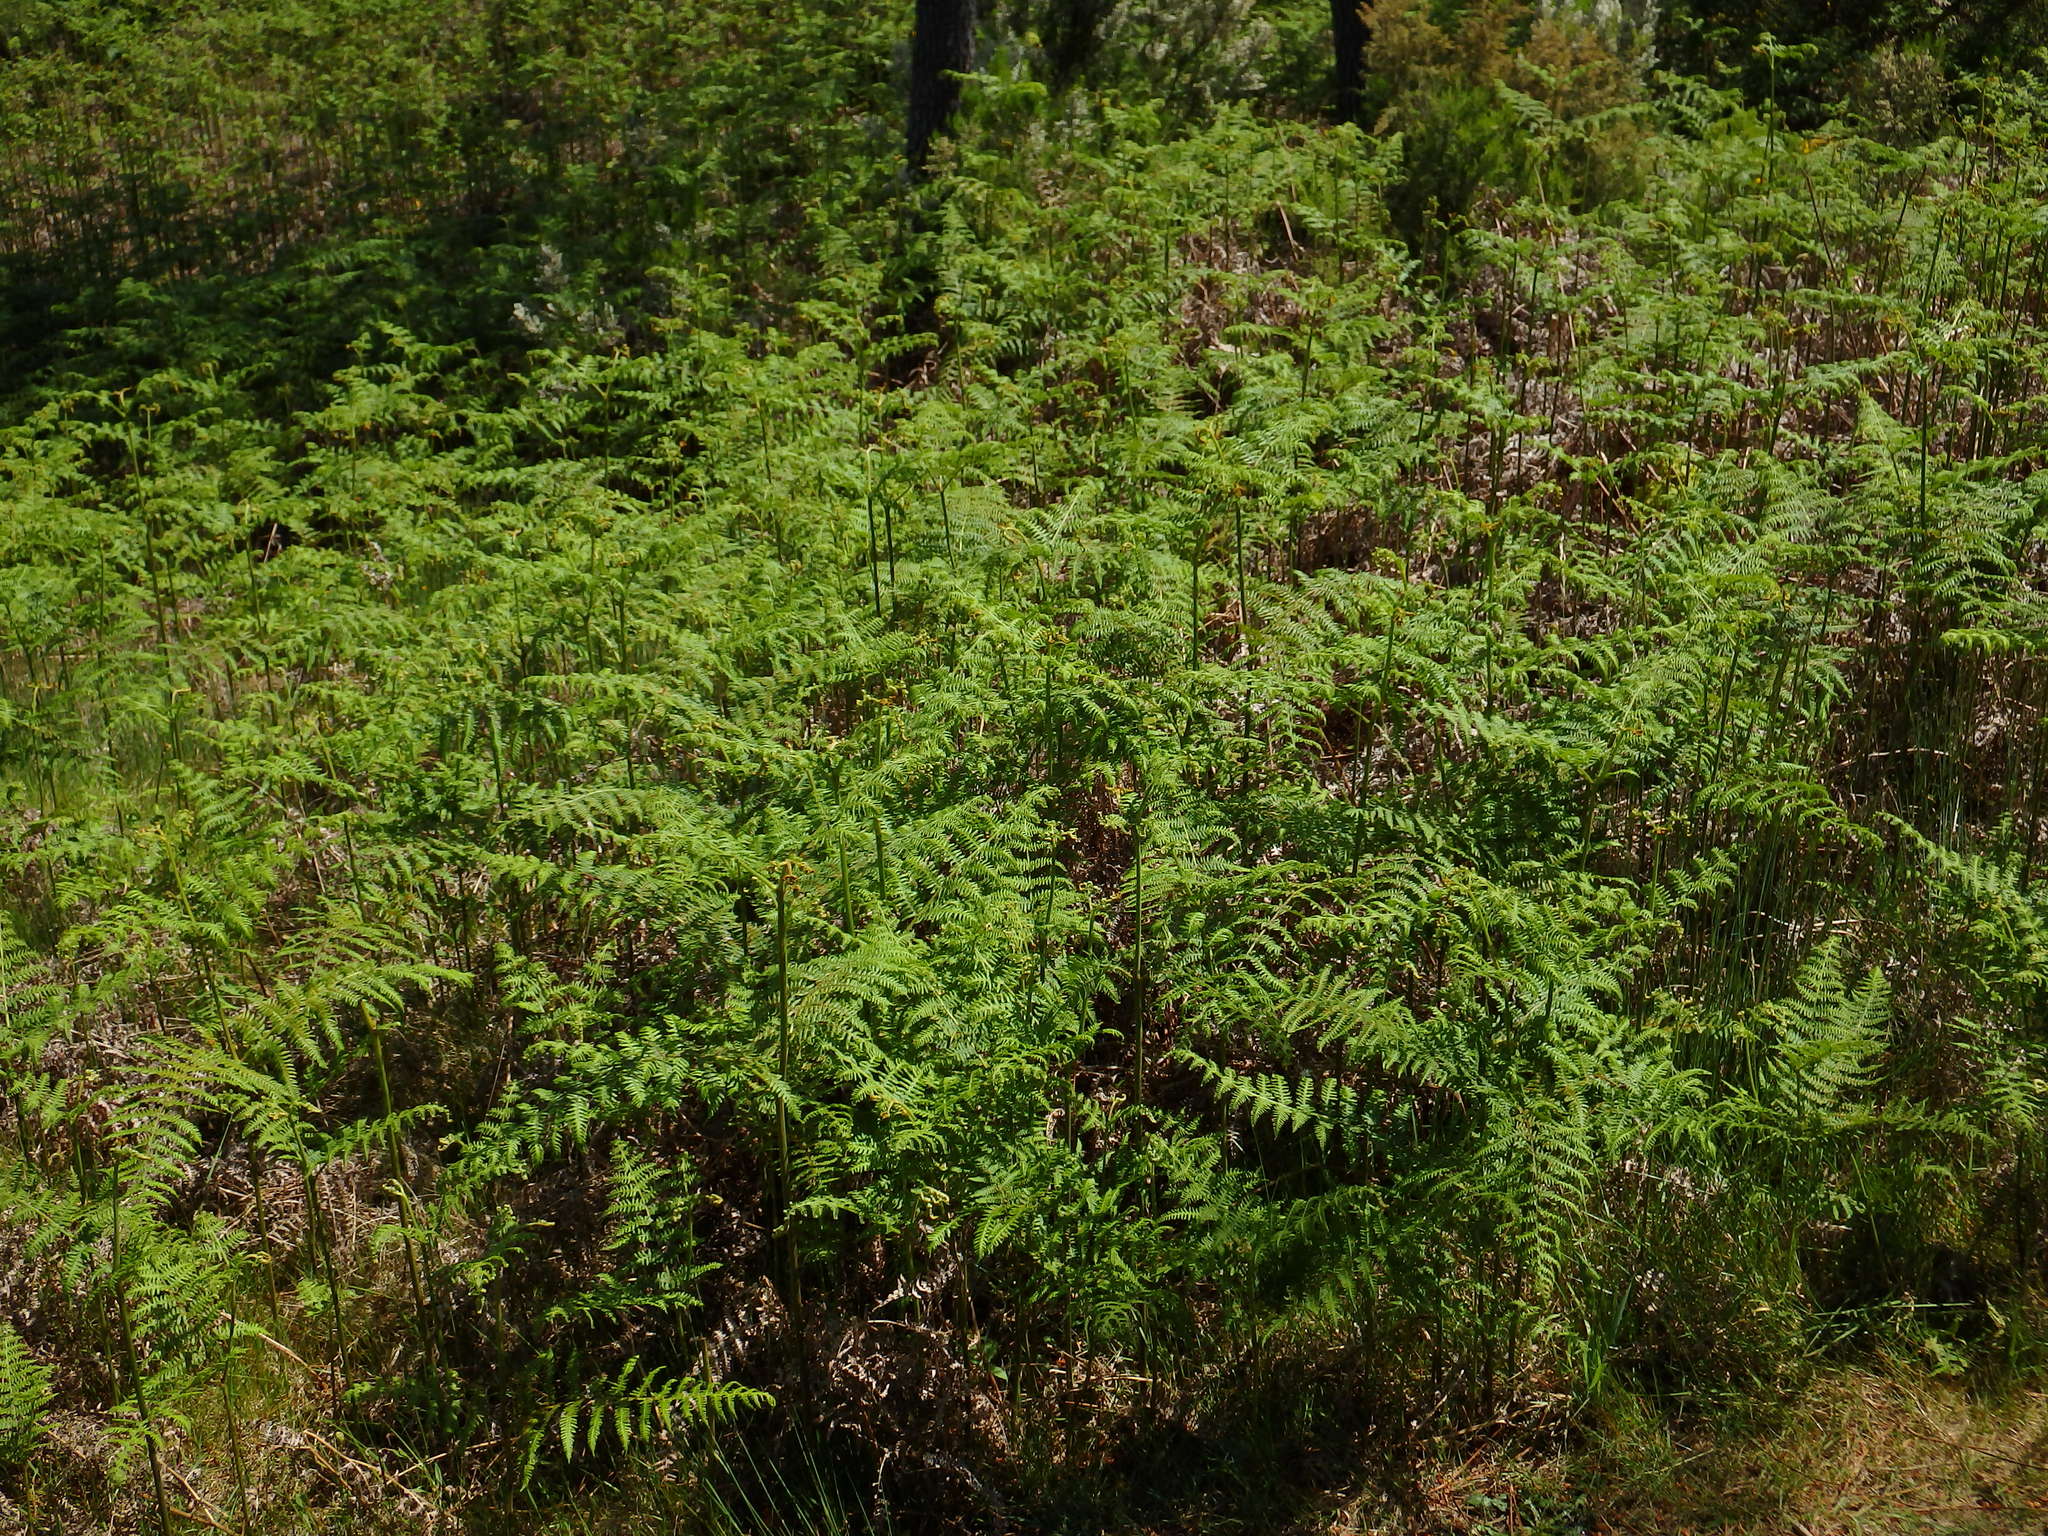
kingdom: Plantae
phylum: Tracheophyta
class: Polypodiopsida
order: Polypodiales
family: Dennstaedtiaceae
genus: Pteridium
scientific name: Pteridium aquilinum
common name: Bracken
